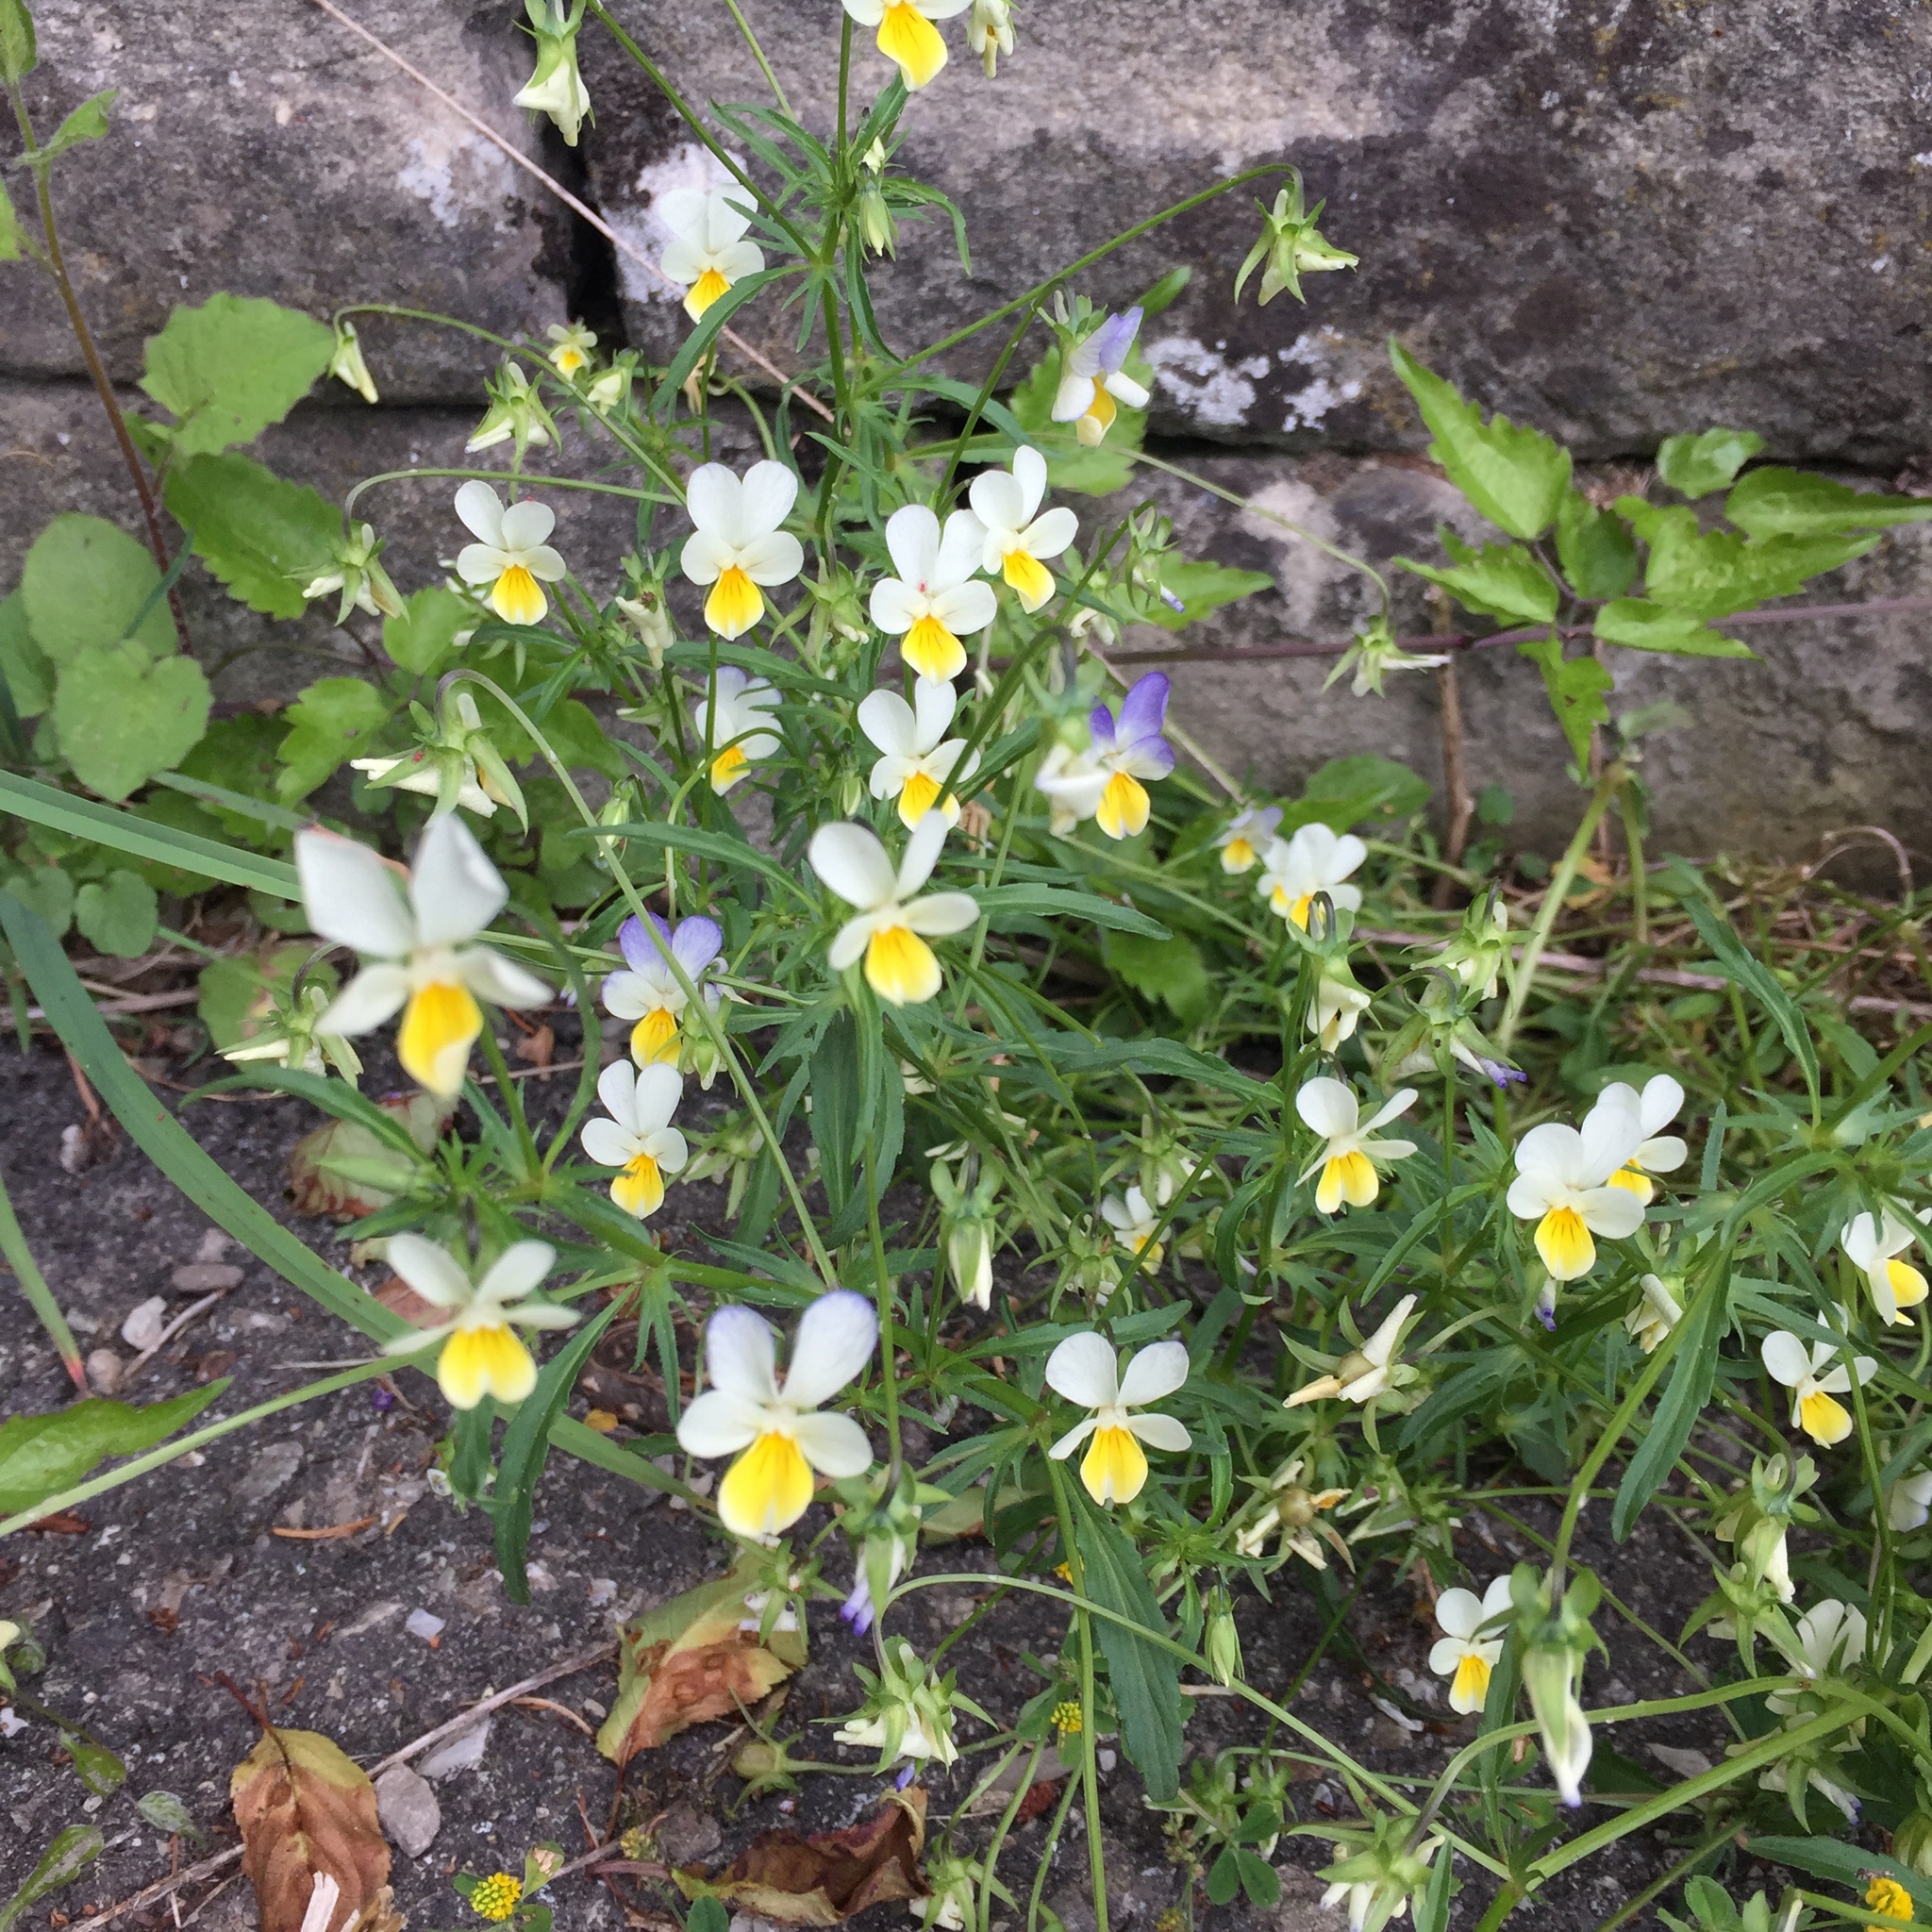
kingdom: Plantae
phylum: Tracheophyta
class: Magnoliopsida
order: Malpighiales
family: Violaceae
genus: Viola
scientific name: Viola tricolor
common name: Pansy
